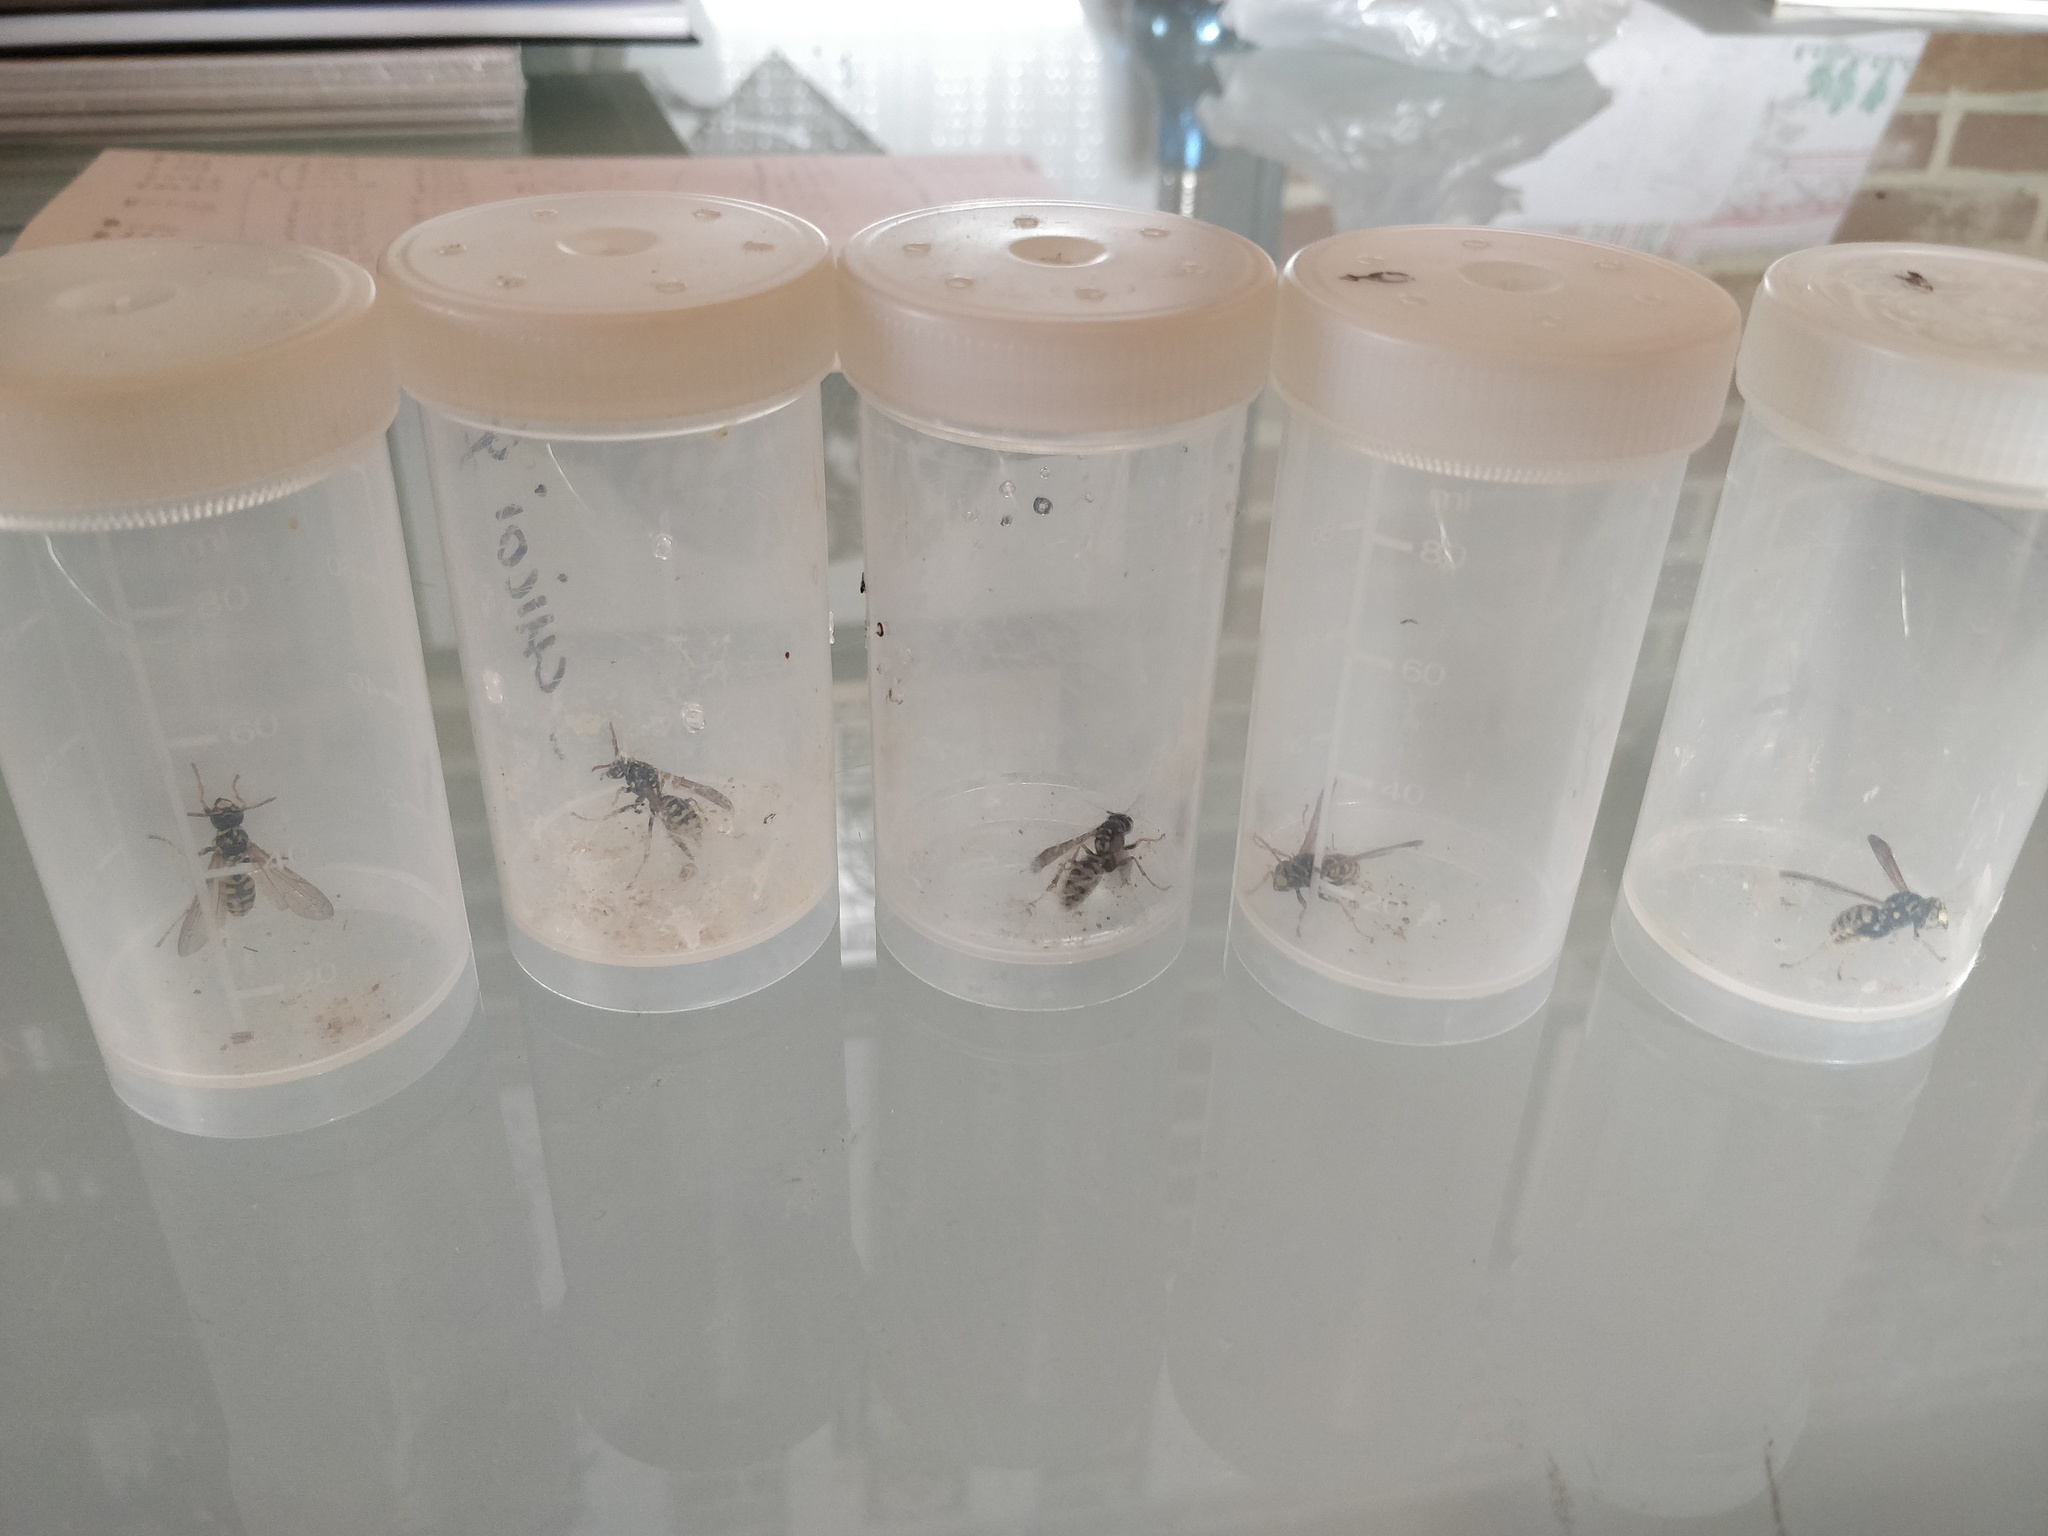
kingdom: Animalia
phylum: Arthropoda
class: Insecta
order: Hymenoptera
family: Eumenidae
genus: Polistes
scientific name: Polistes dominula
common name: Paper wasp
